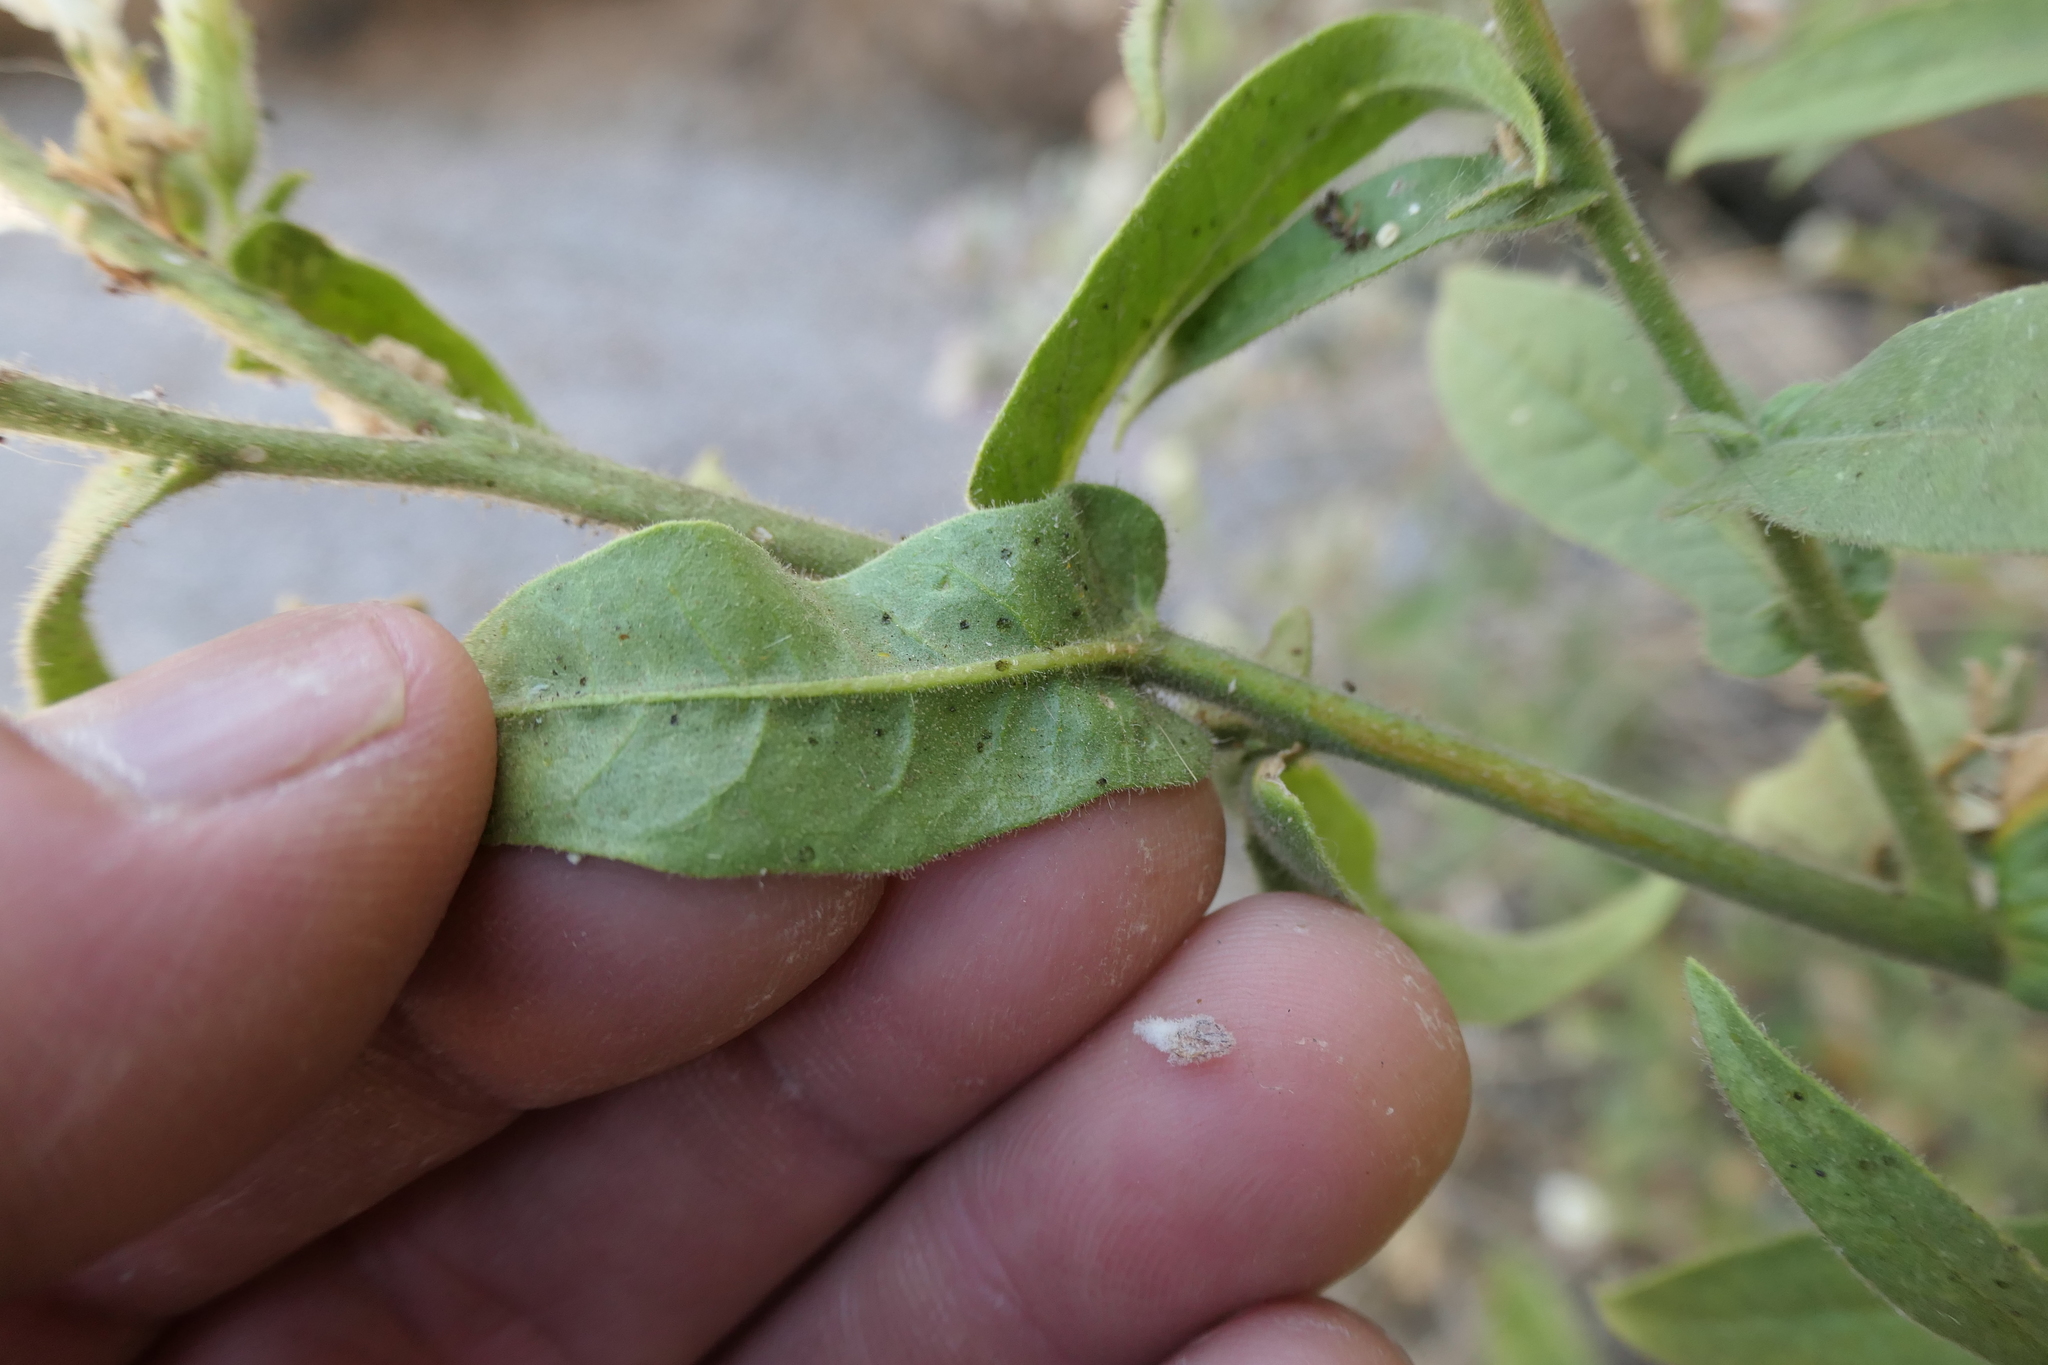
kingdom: Plantae
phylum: Tracheophyta
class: Magnoliopsida
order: Solanales
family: Solanaceae
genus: Nicotiana
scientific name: Nicotiana obtusifolia
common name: Desert tobacco
